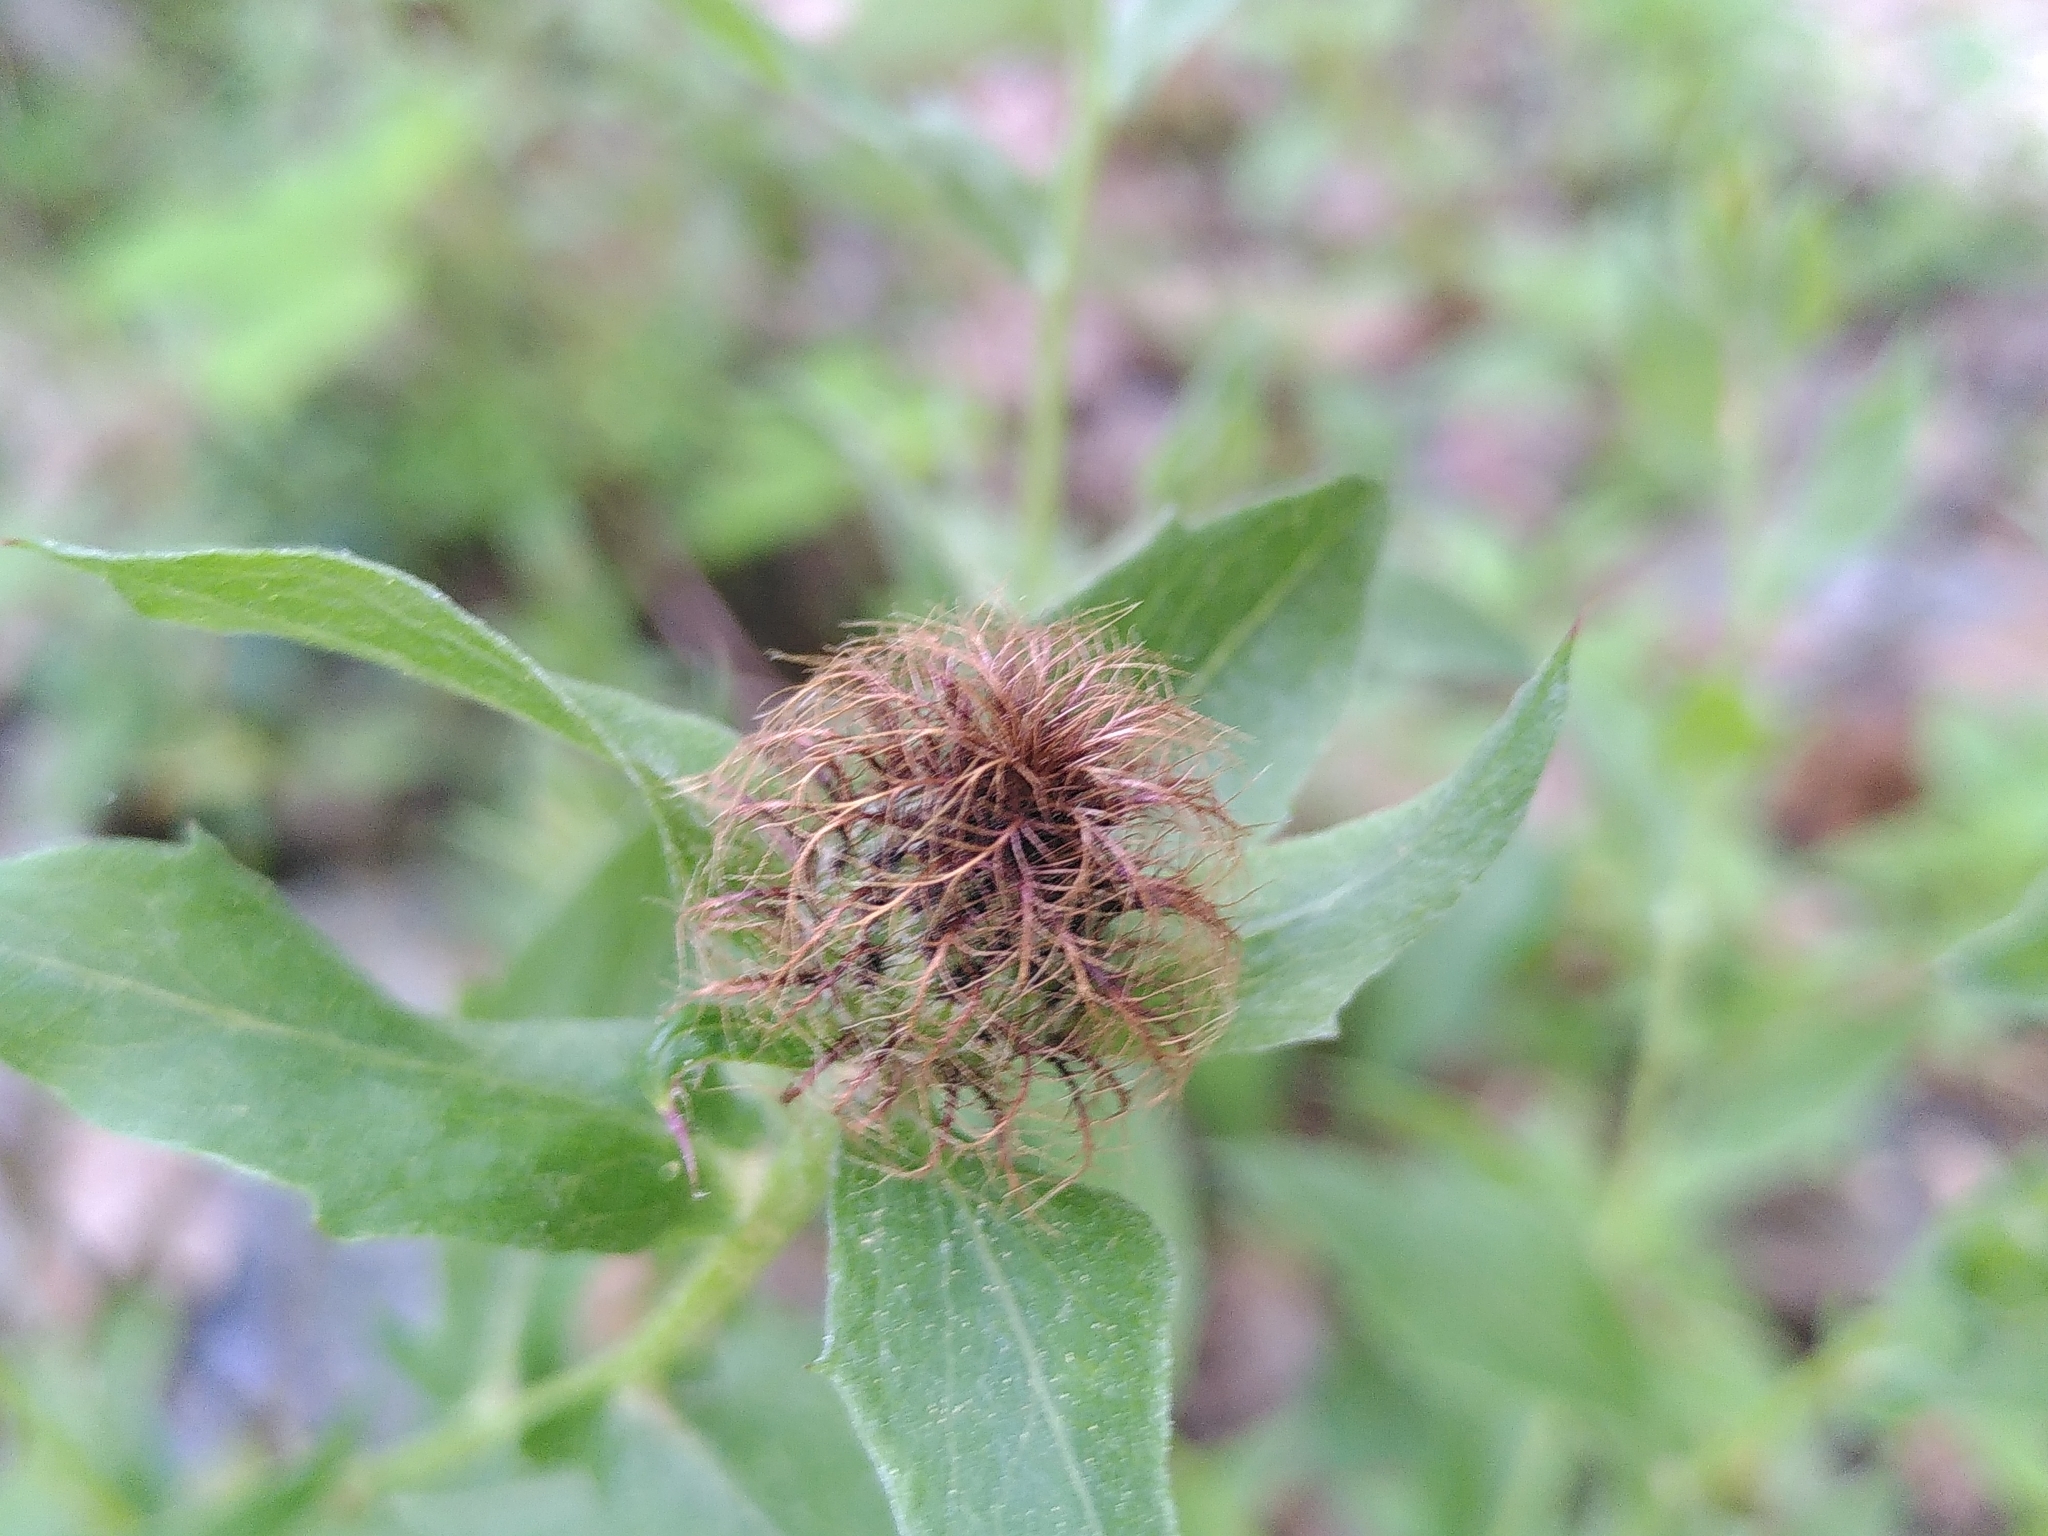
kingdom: Plantae
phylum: Tracheophyta
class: Magnoliopsida
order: Asterales
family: Asteraceae
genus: Centaurea
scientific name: Centaurea pseudophrygia
